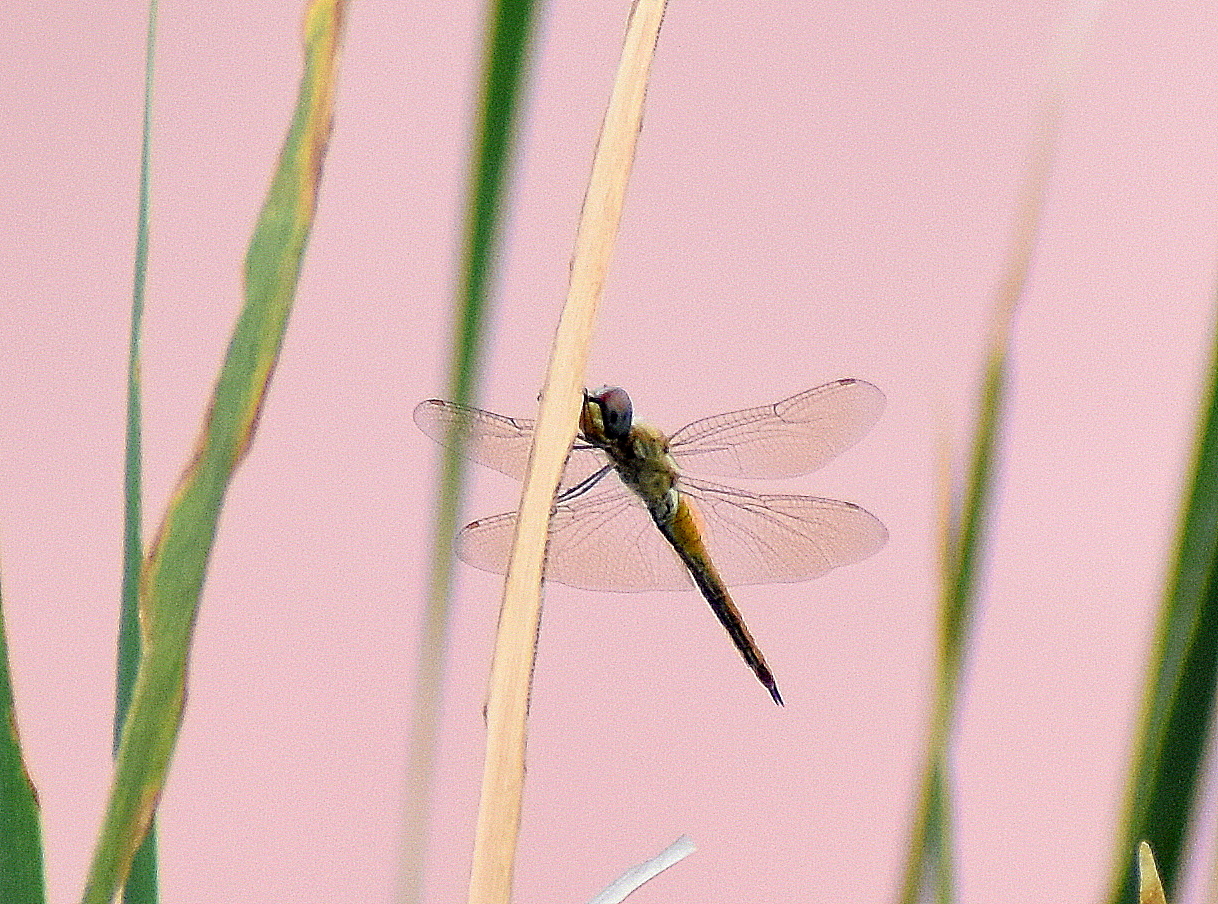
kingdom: Animalia
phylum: Arthropoda
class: Insecta
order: Odonata
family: Libellulidae
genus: Pantala
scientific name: Pantala flavescens
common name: Wandering glider
